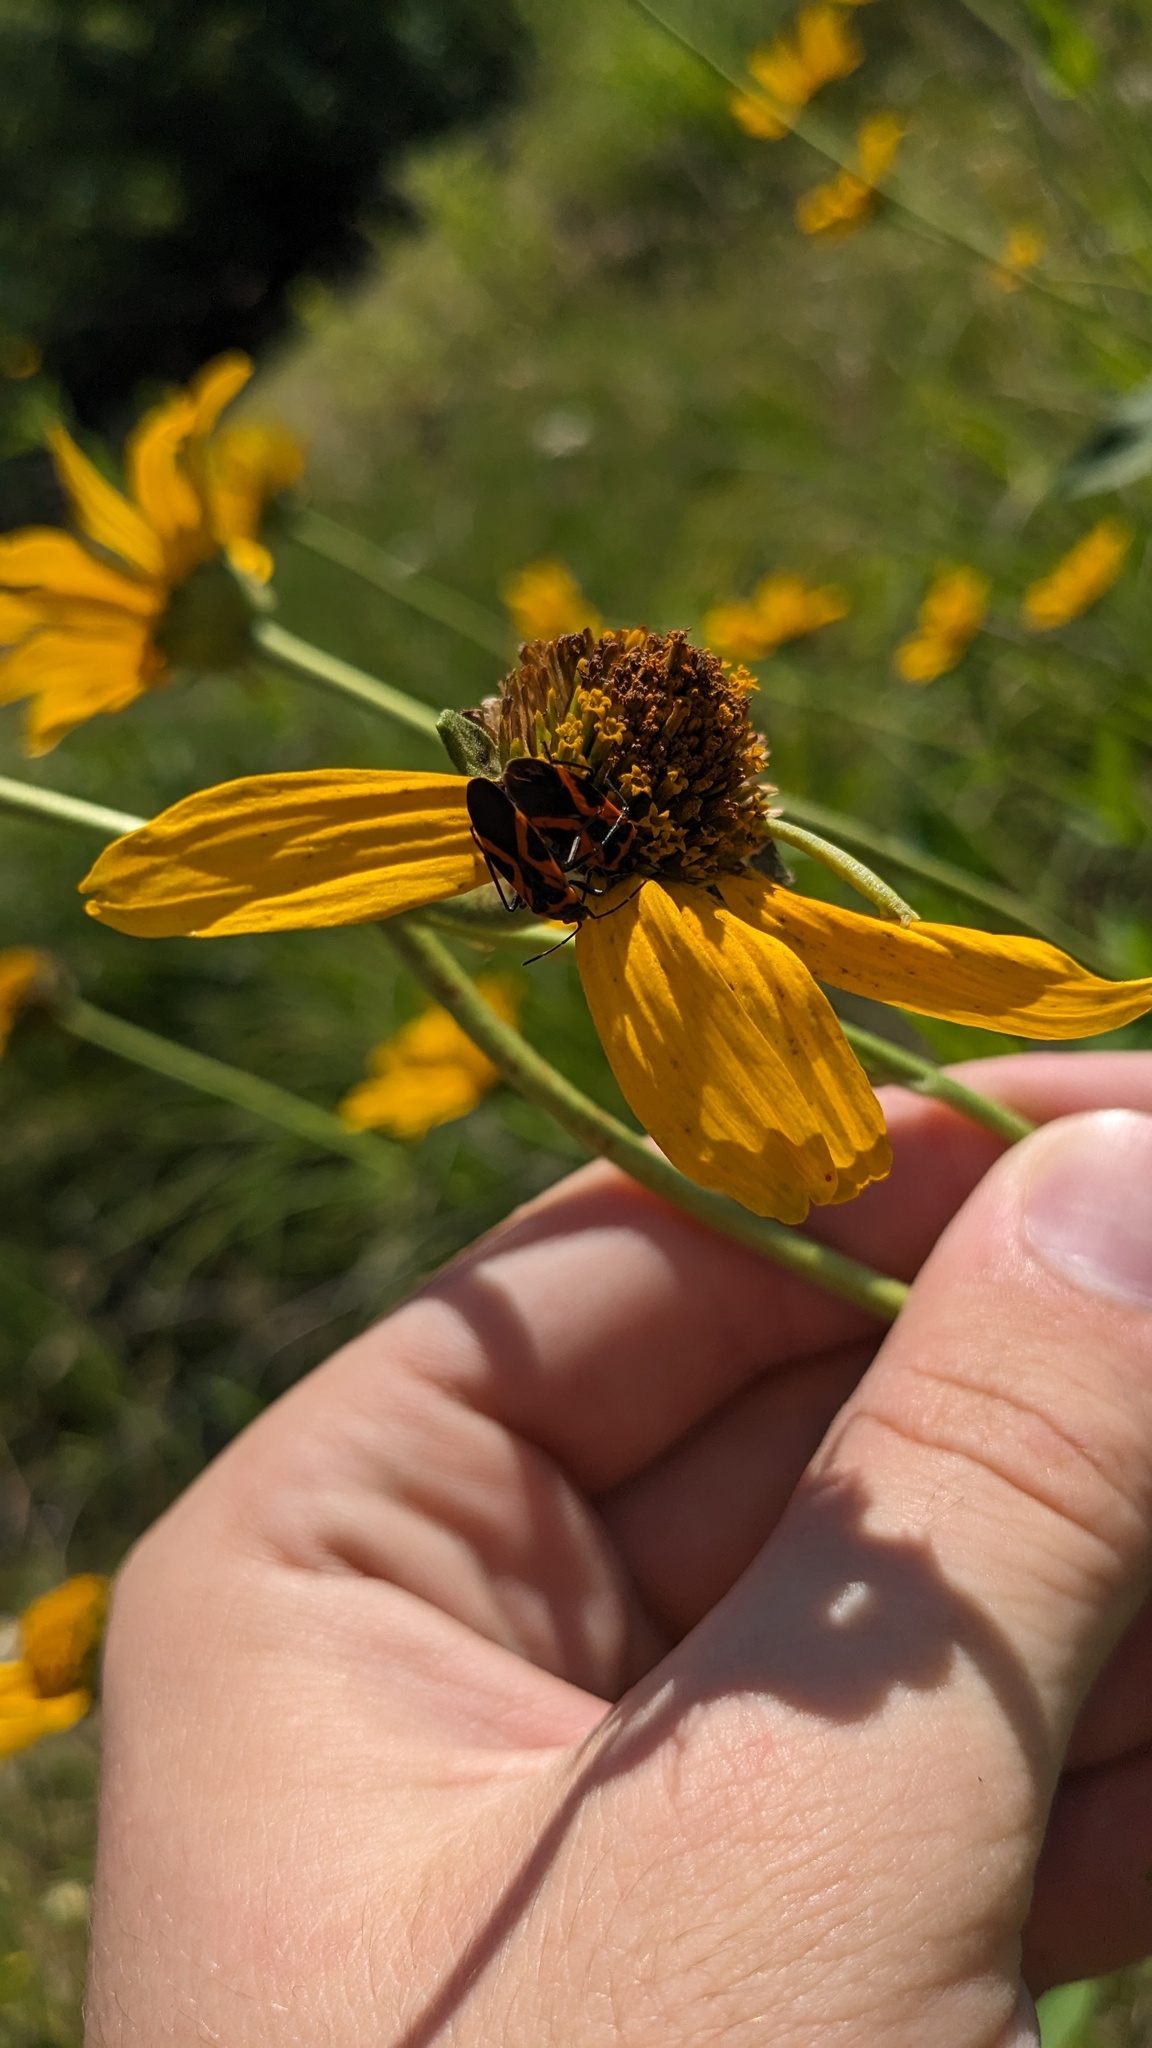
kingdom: Animalia
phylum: Arthropoda
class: Insecta
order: Hemiptera
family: Lygaeidae
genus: Lygaeus
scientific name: Lygaeus turcicus
